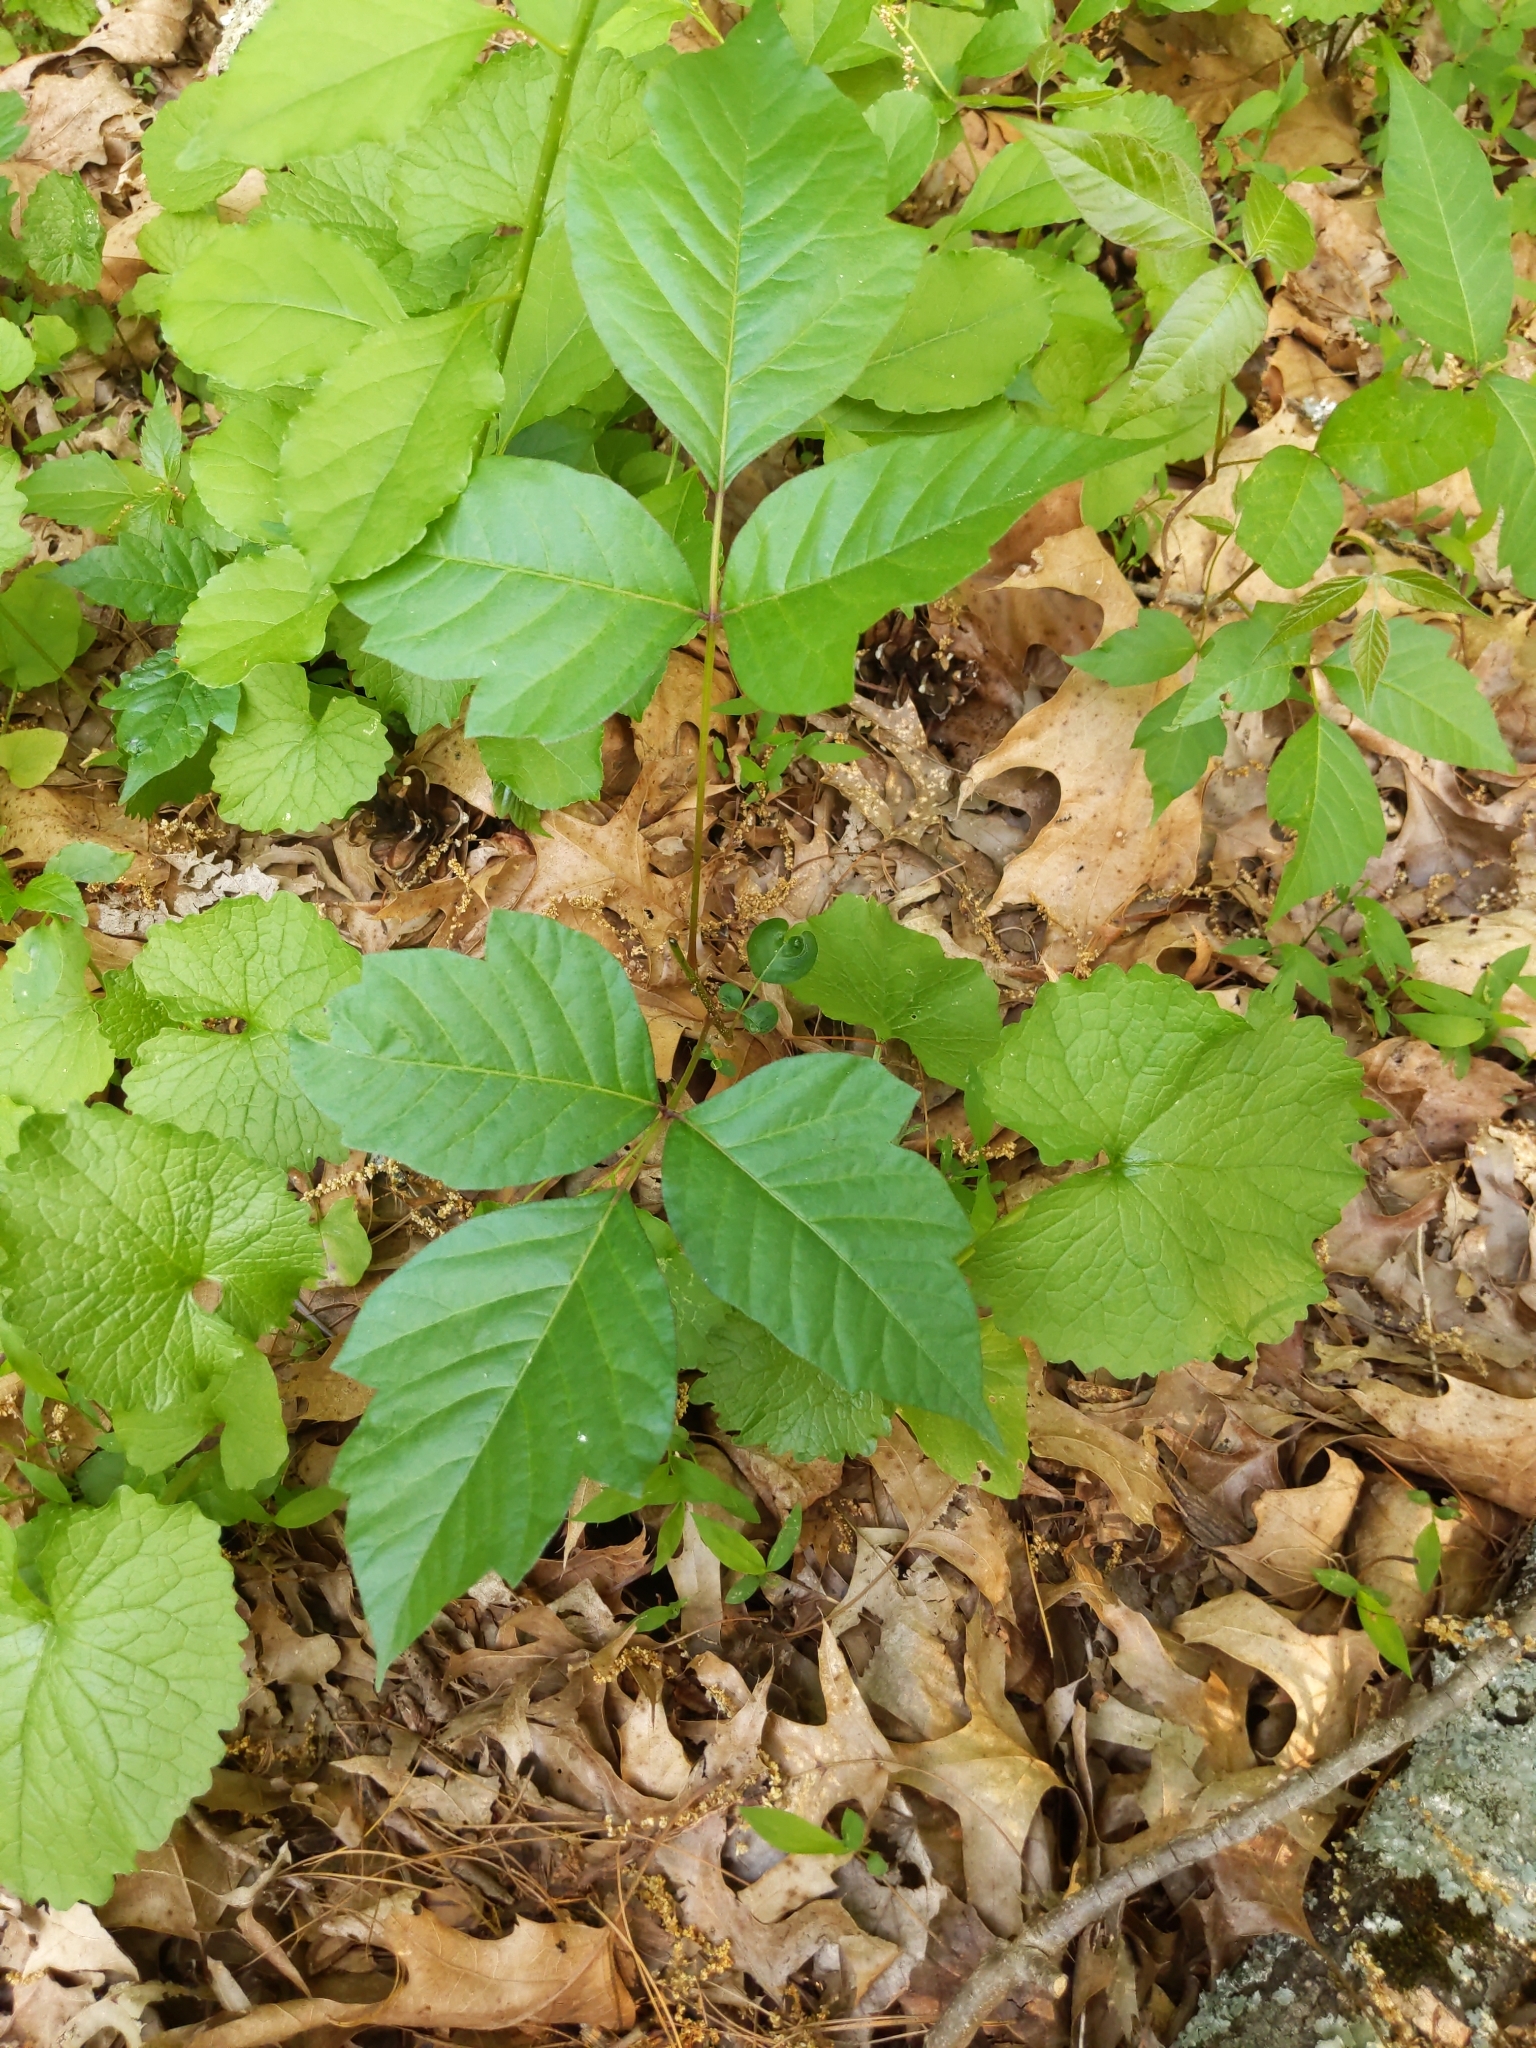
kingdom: Plantae
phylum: Tracheophyta
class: Magnoliopsida
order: Sapindales
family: Anacardiaceae
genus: Toxicodendron
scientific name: Toxicodendron radicans
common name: Poison ivy
